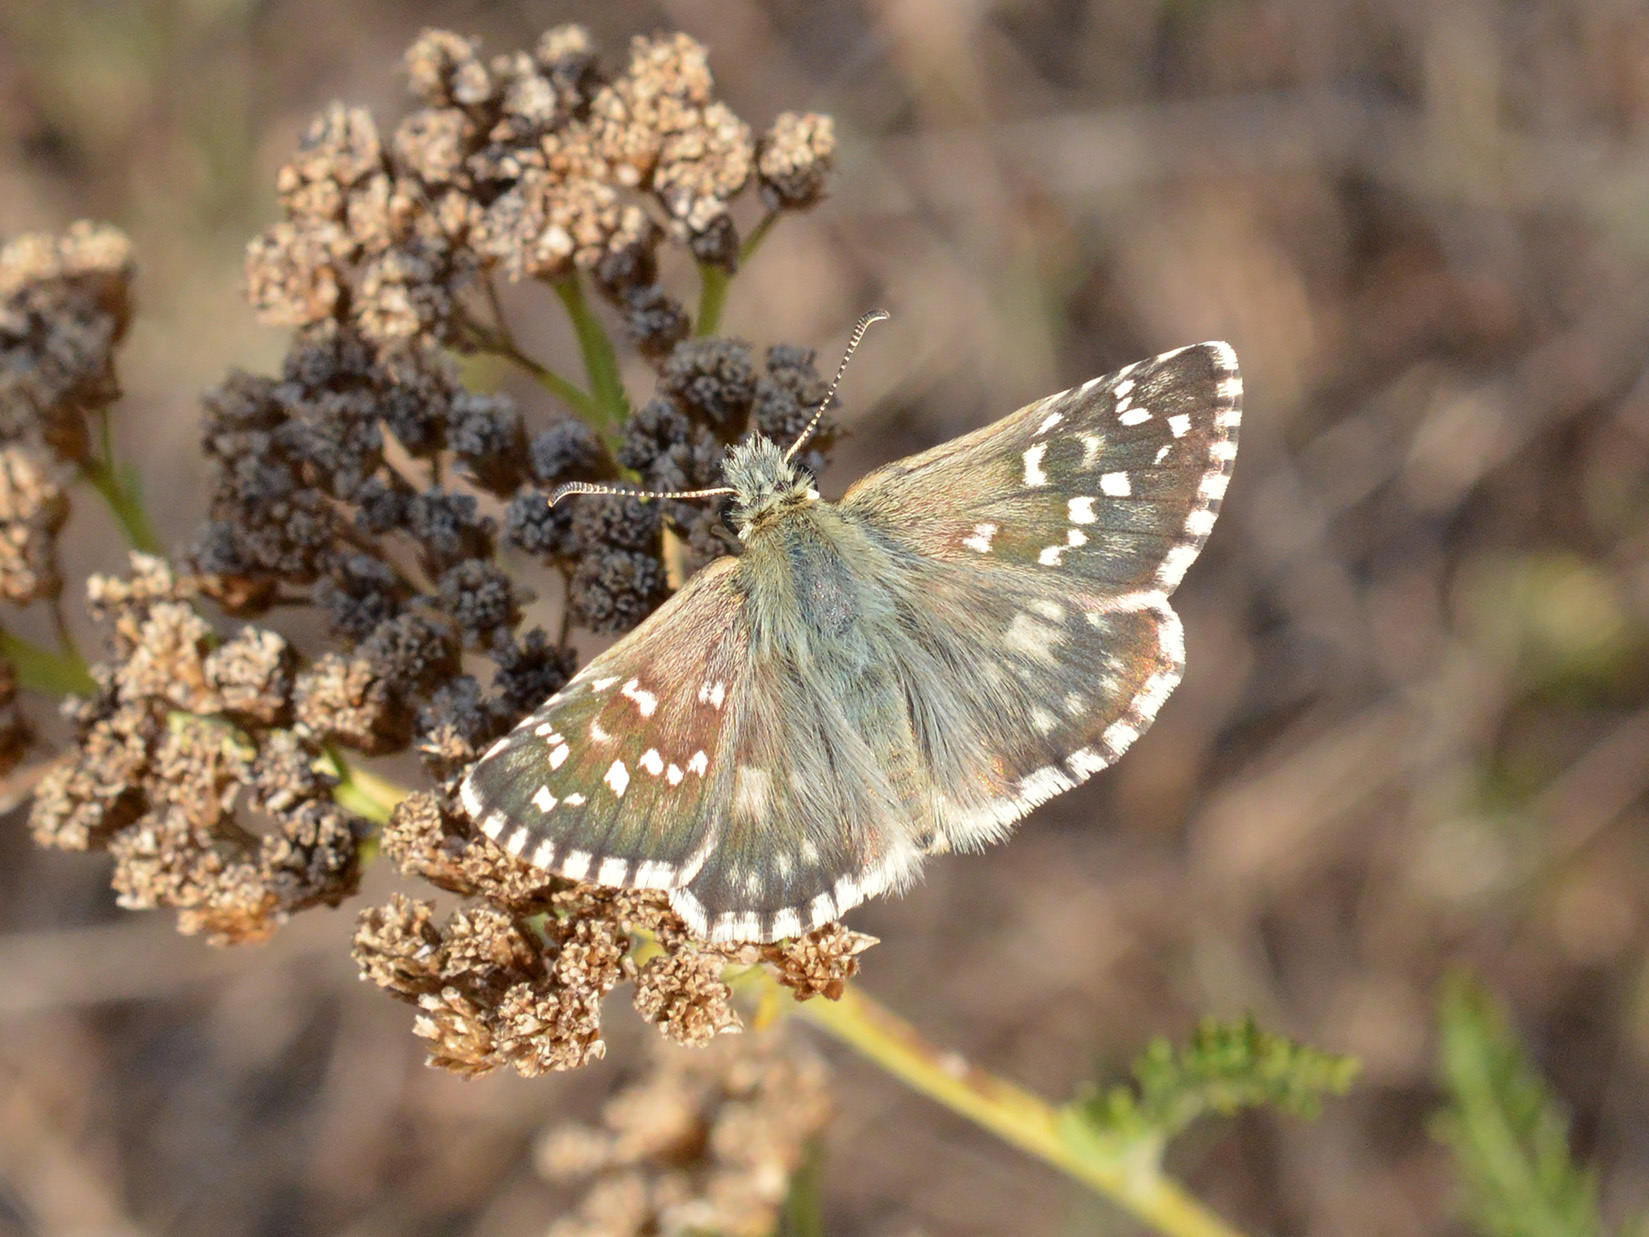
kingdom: Animalia
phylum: Arthropoda
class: Insecta
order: Lepidoptera
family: Hesperiidae
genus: Pyrgus
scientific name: Pyrgus armoricanus
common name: Oberthür's grizzled skipper
